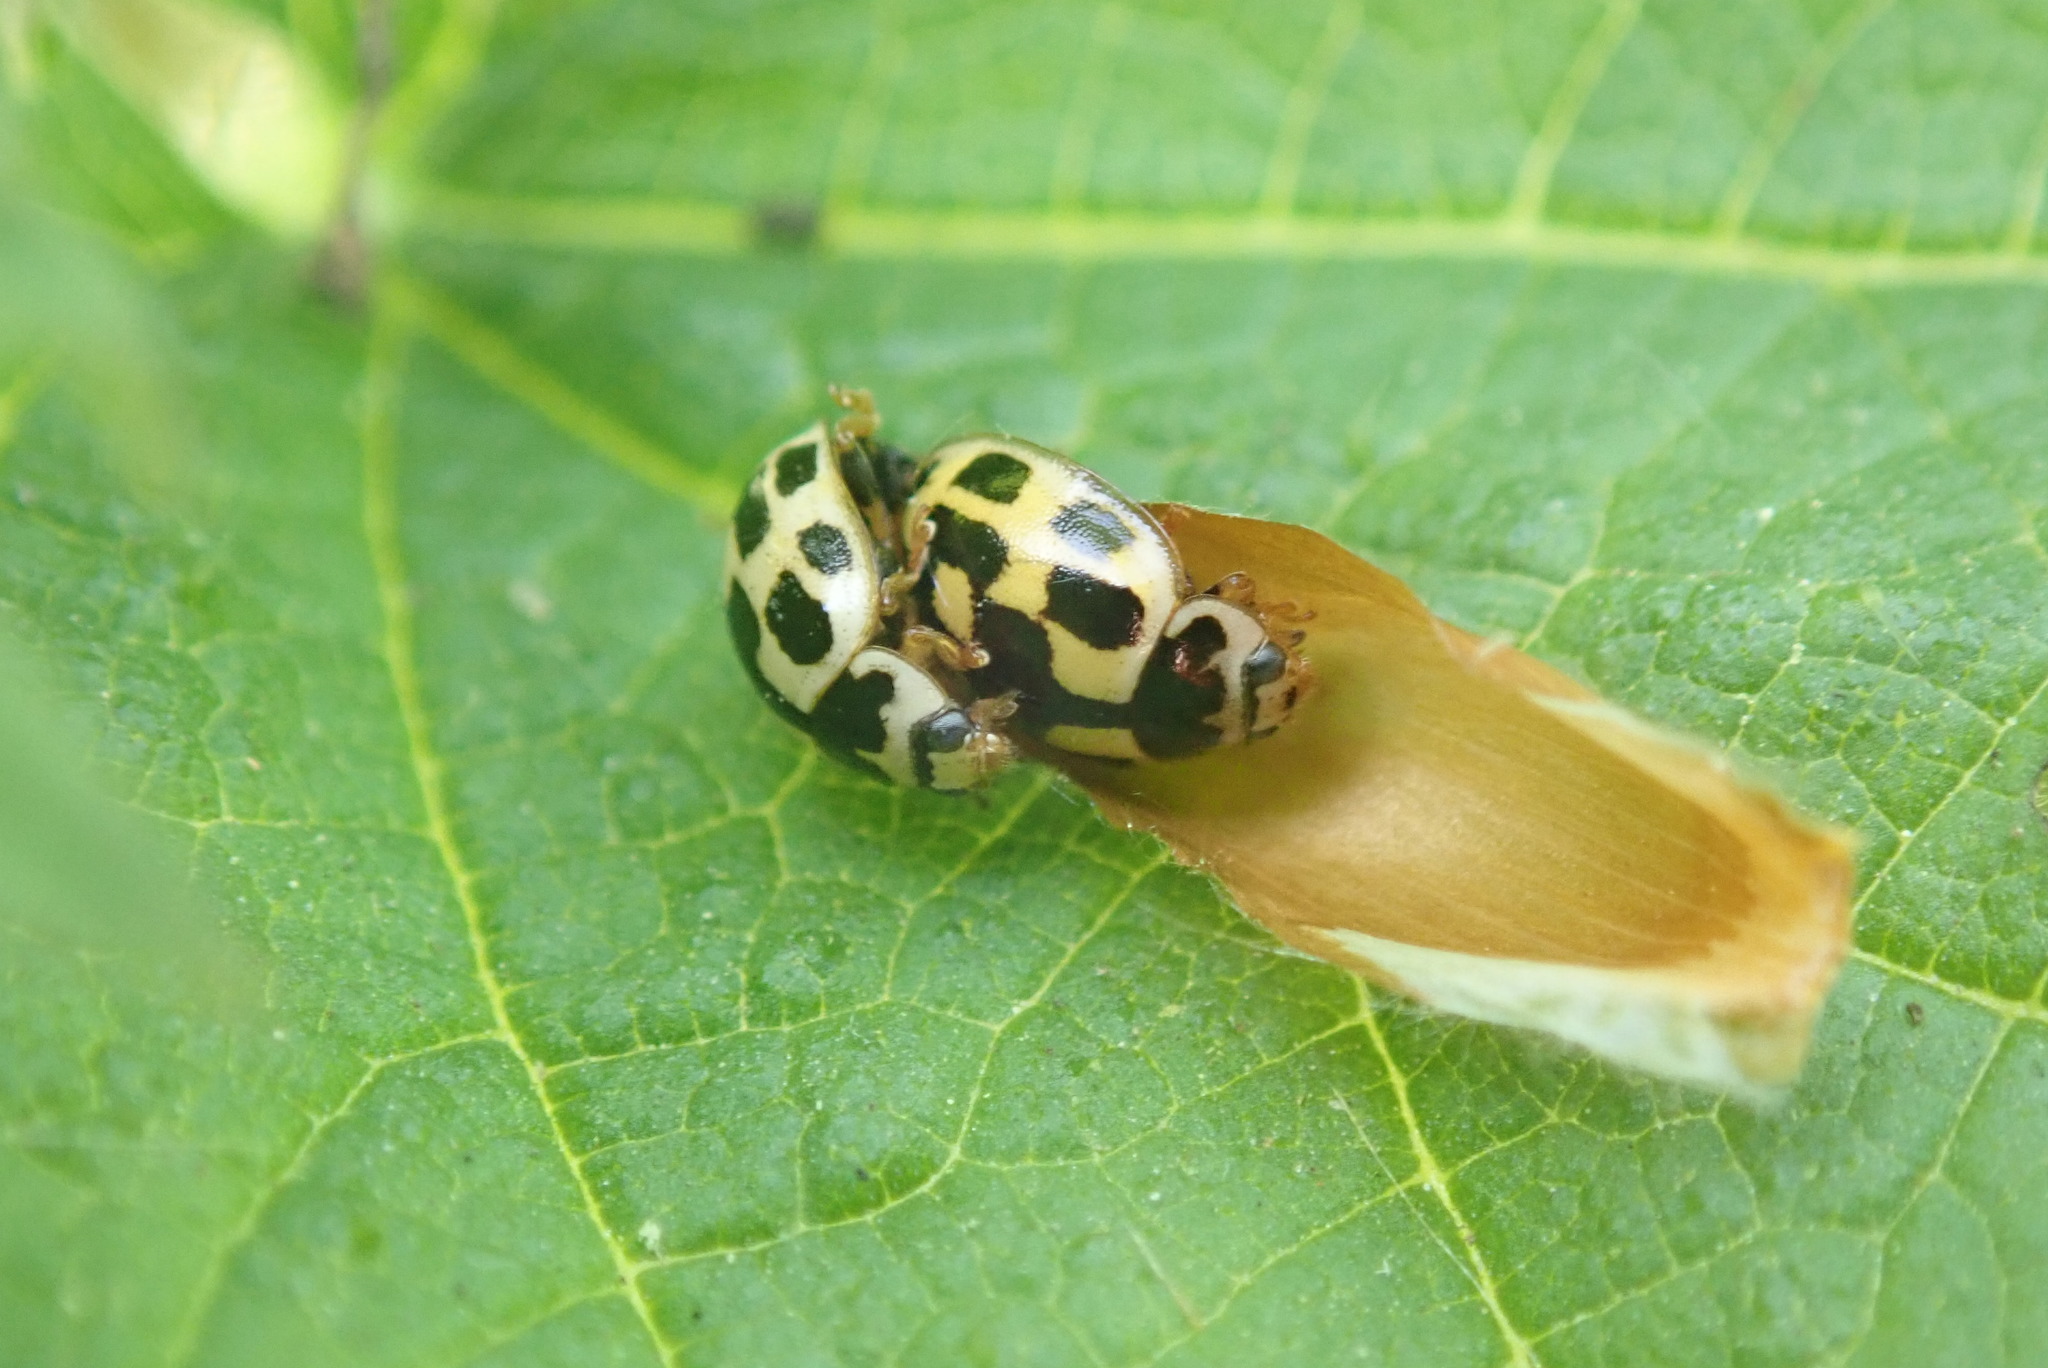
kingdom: Animalia
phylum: Arthropoda
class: Insecta
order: Coleoptera
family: Coccinellidae
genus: Propylaea
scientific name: Propylaea quatuordecimpunctata
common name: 14-spotted ladybird beetle
